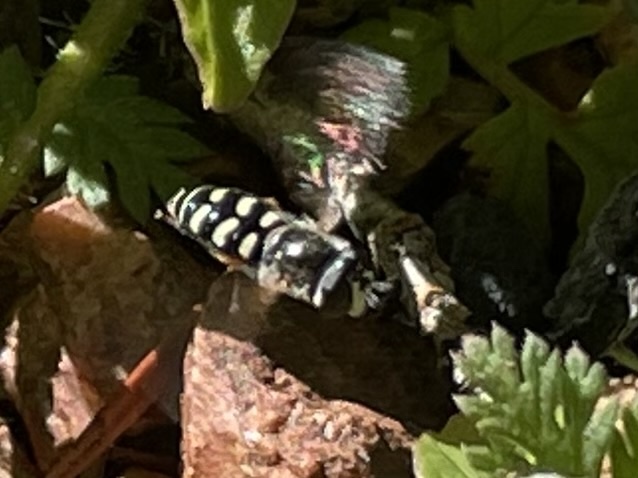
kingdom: Animalia
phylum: Arthropoda
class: Insecta
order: Diptera
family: Syrphidae
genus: Eupeodes
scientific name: Eupeodes volucris
